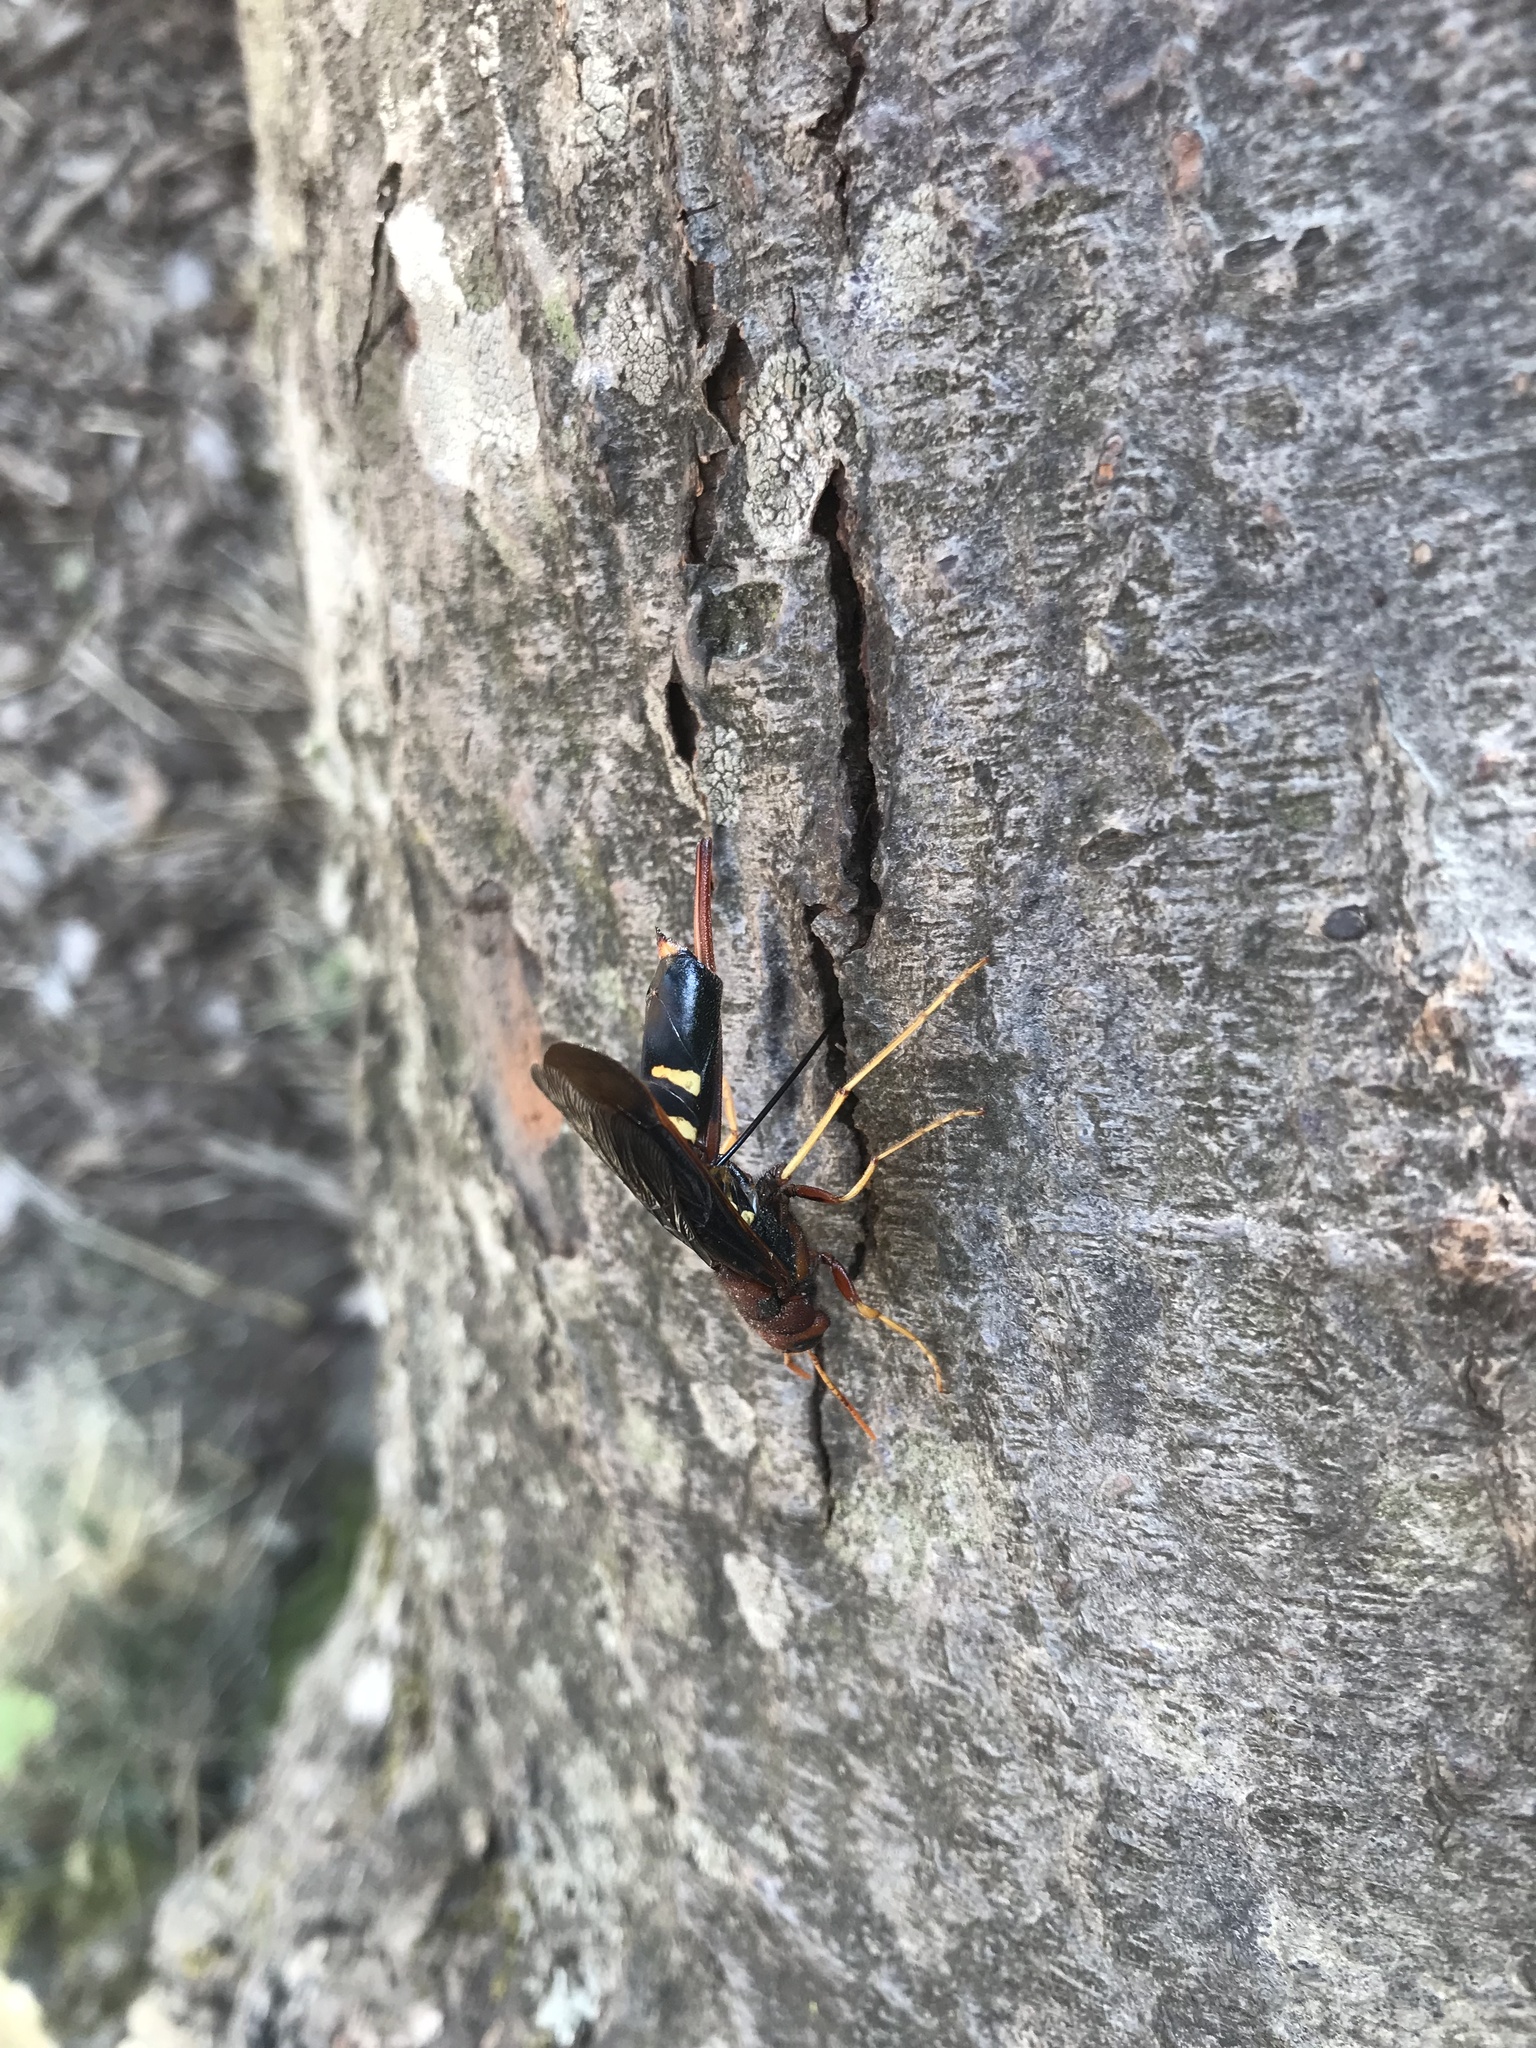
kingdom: Animalia
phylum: Arthropoda
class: Insecta
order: Hymenoptera
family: Siricidae
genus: Tremex
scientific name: Tremex columba
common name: Wasp
